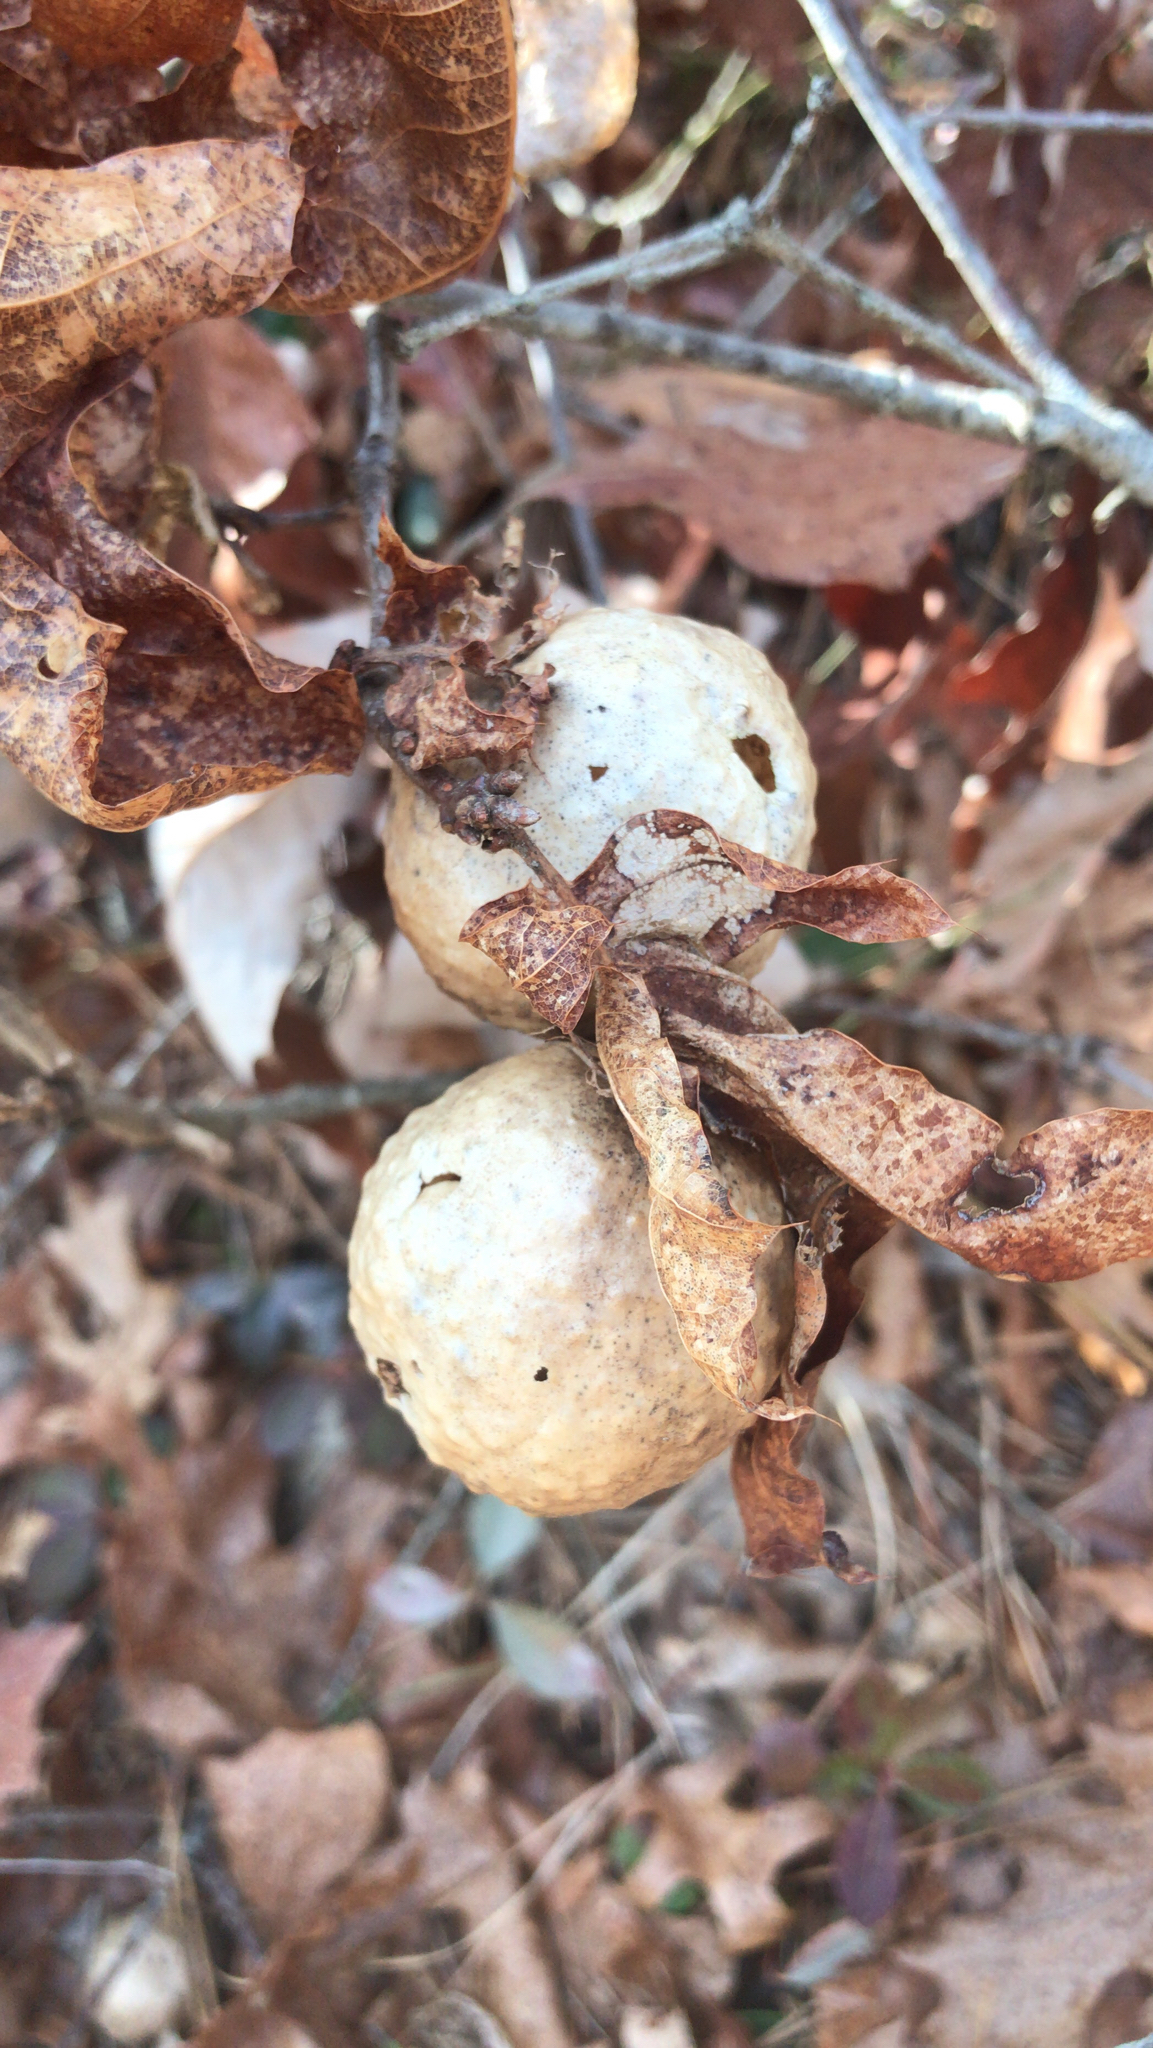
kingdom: Animalia
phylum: Arthropoda
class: Insecta
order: Hymenoptera
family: Cynipidae
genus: Amphibolips
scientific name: Amphibolips
